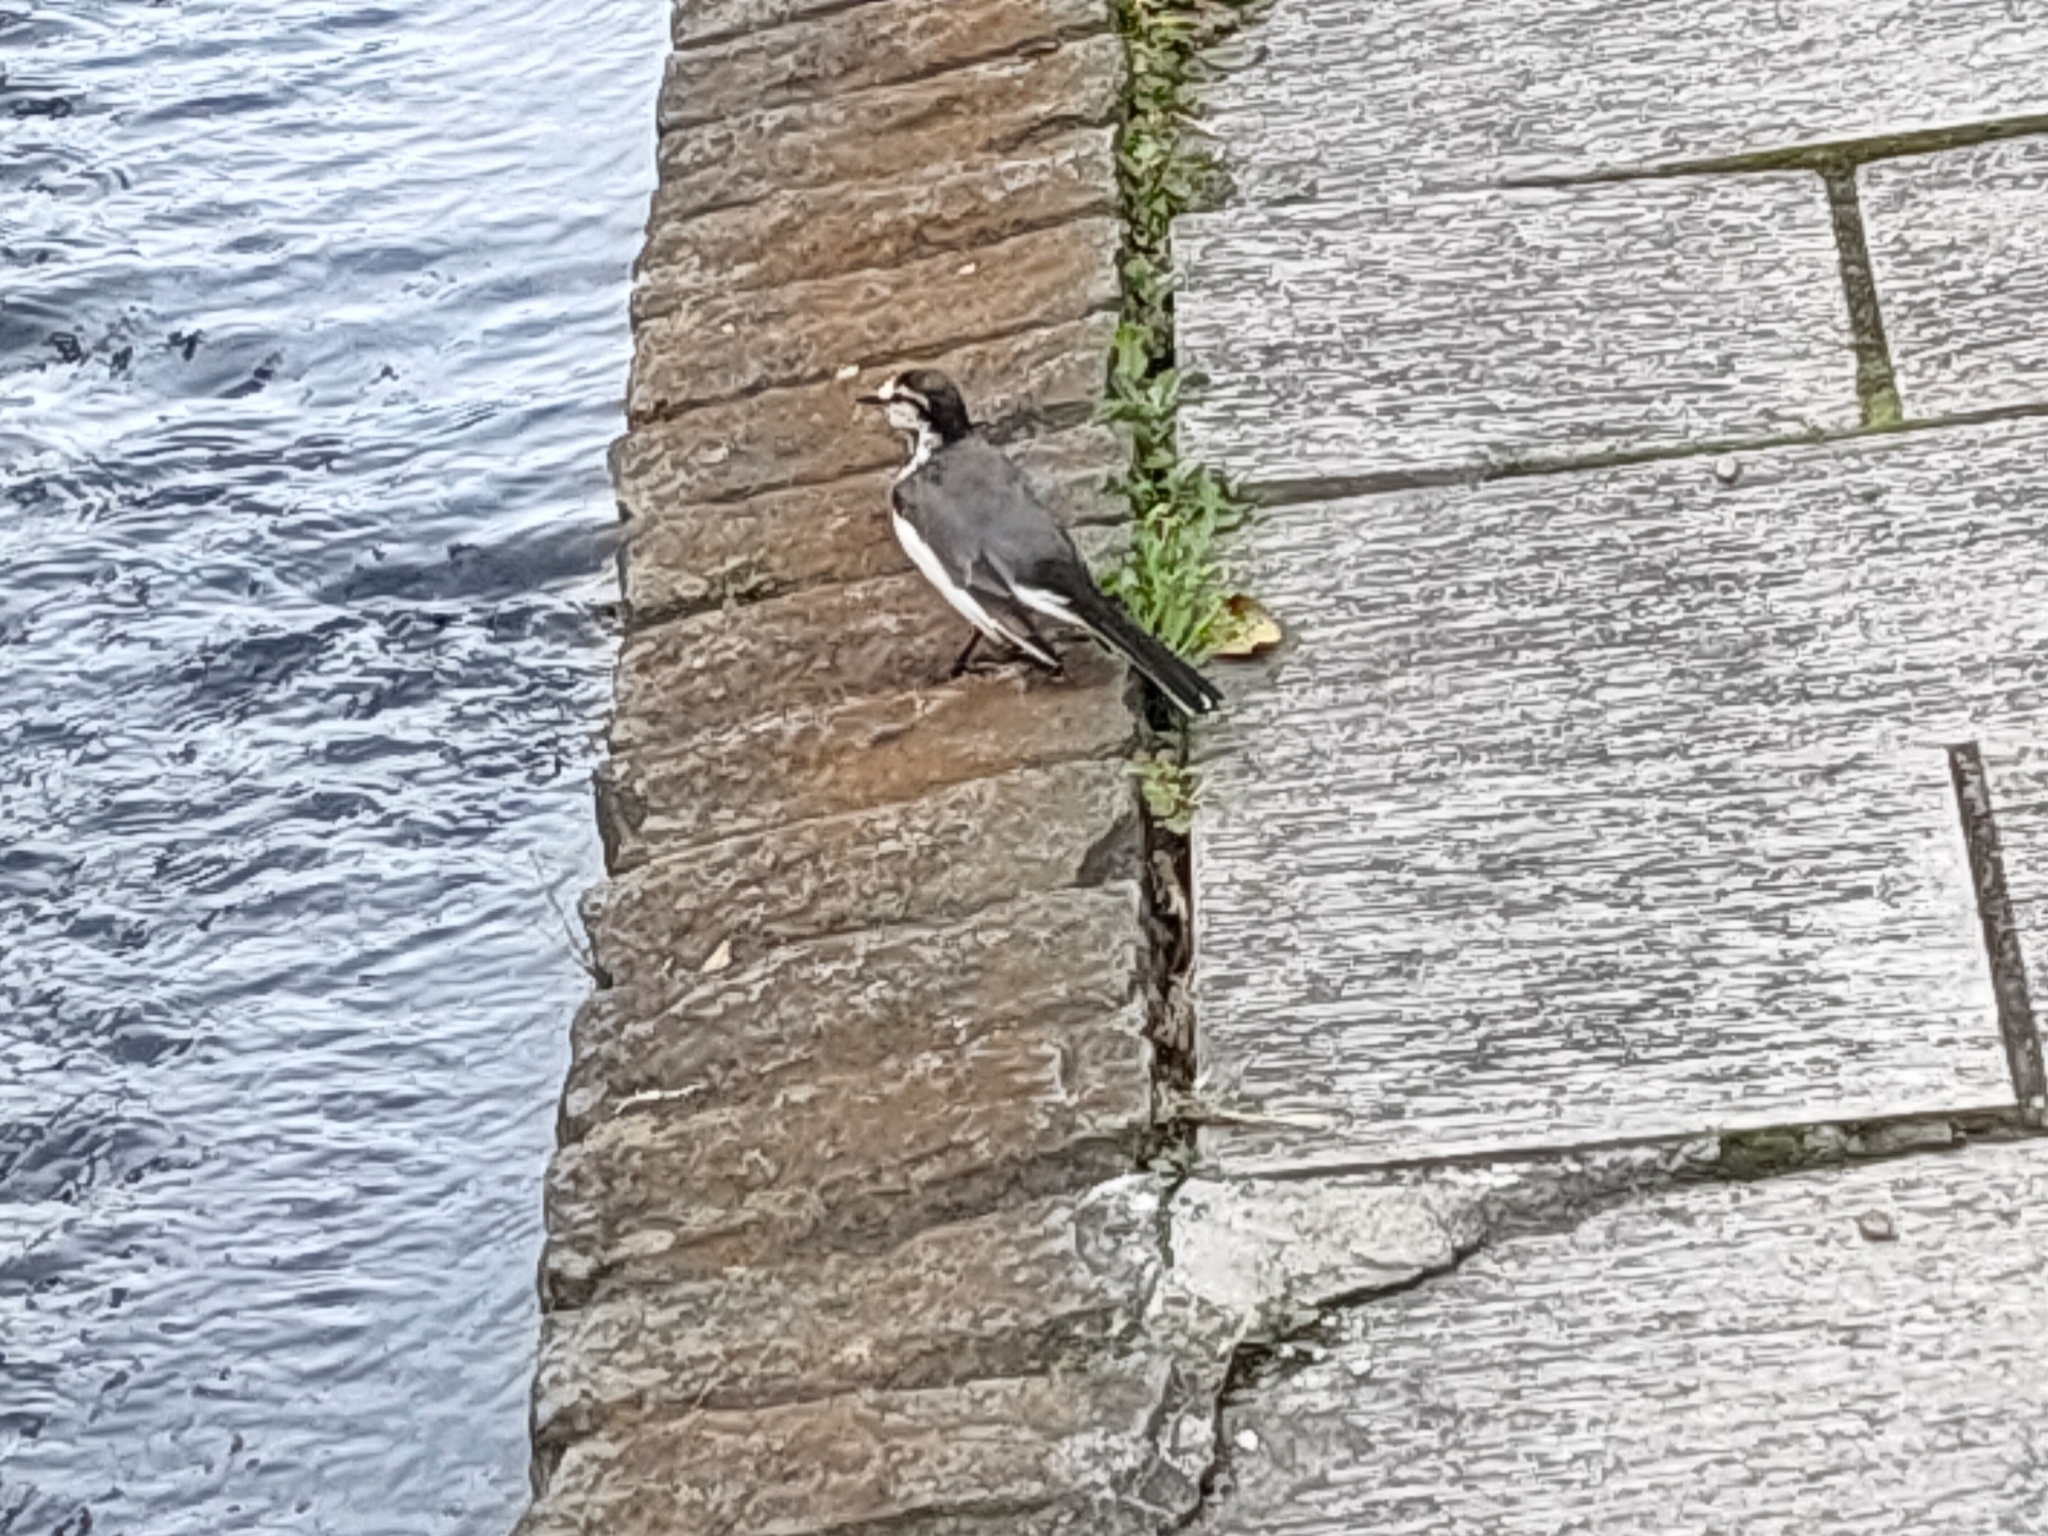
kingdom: Animalia
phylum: Chordata
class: Aves
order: Passeriformes
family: Motacillidae
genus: Motacilla
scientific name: Motacilla alba
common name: White wagtail
